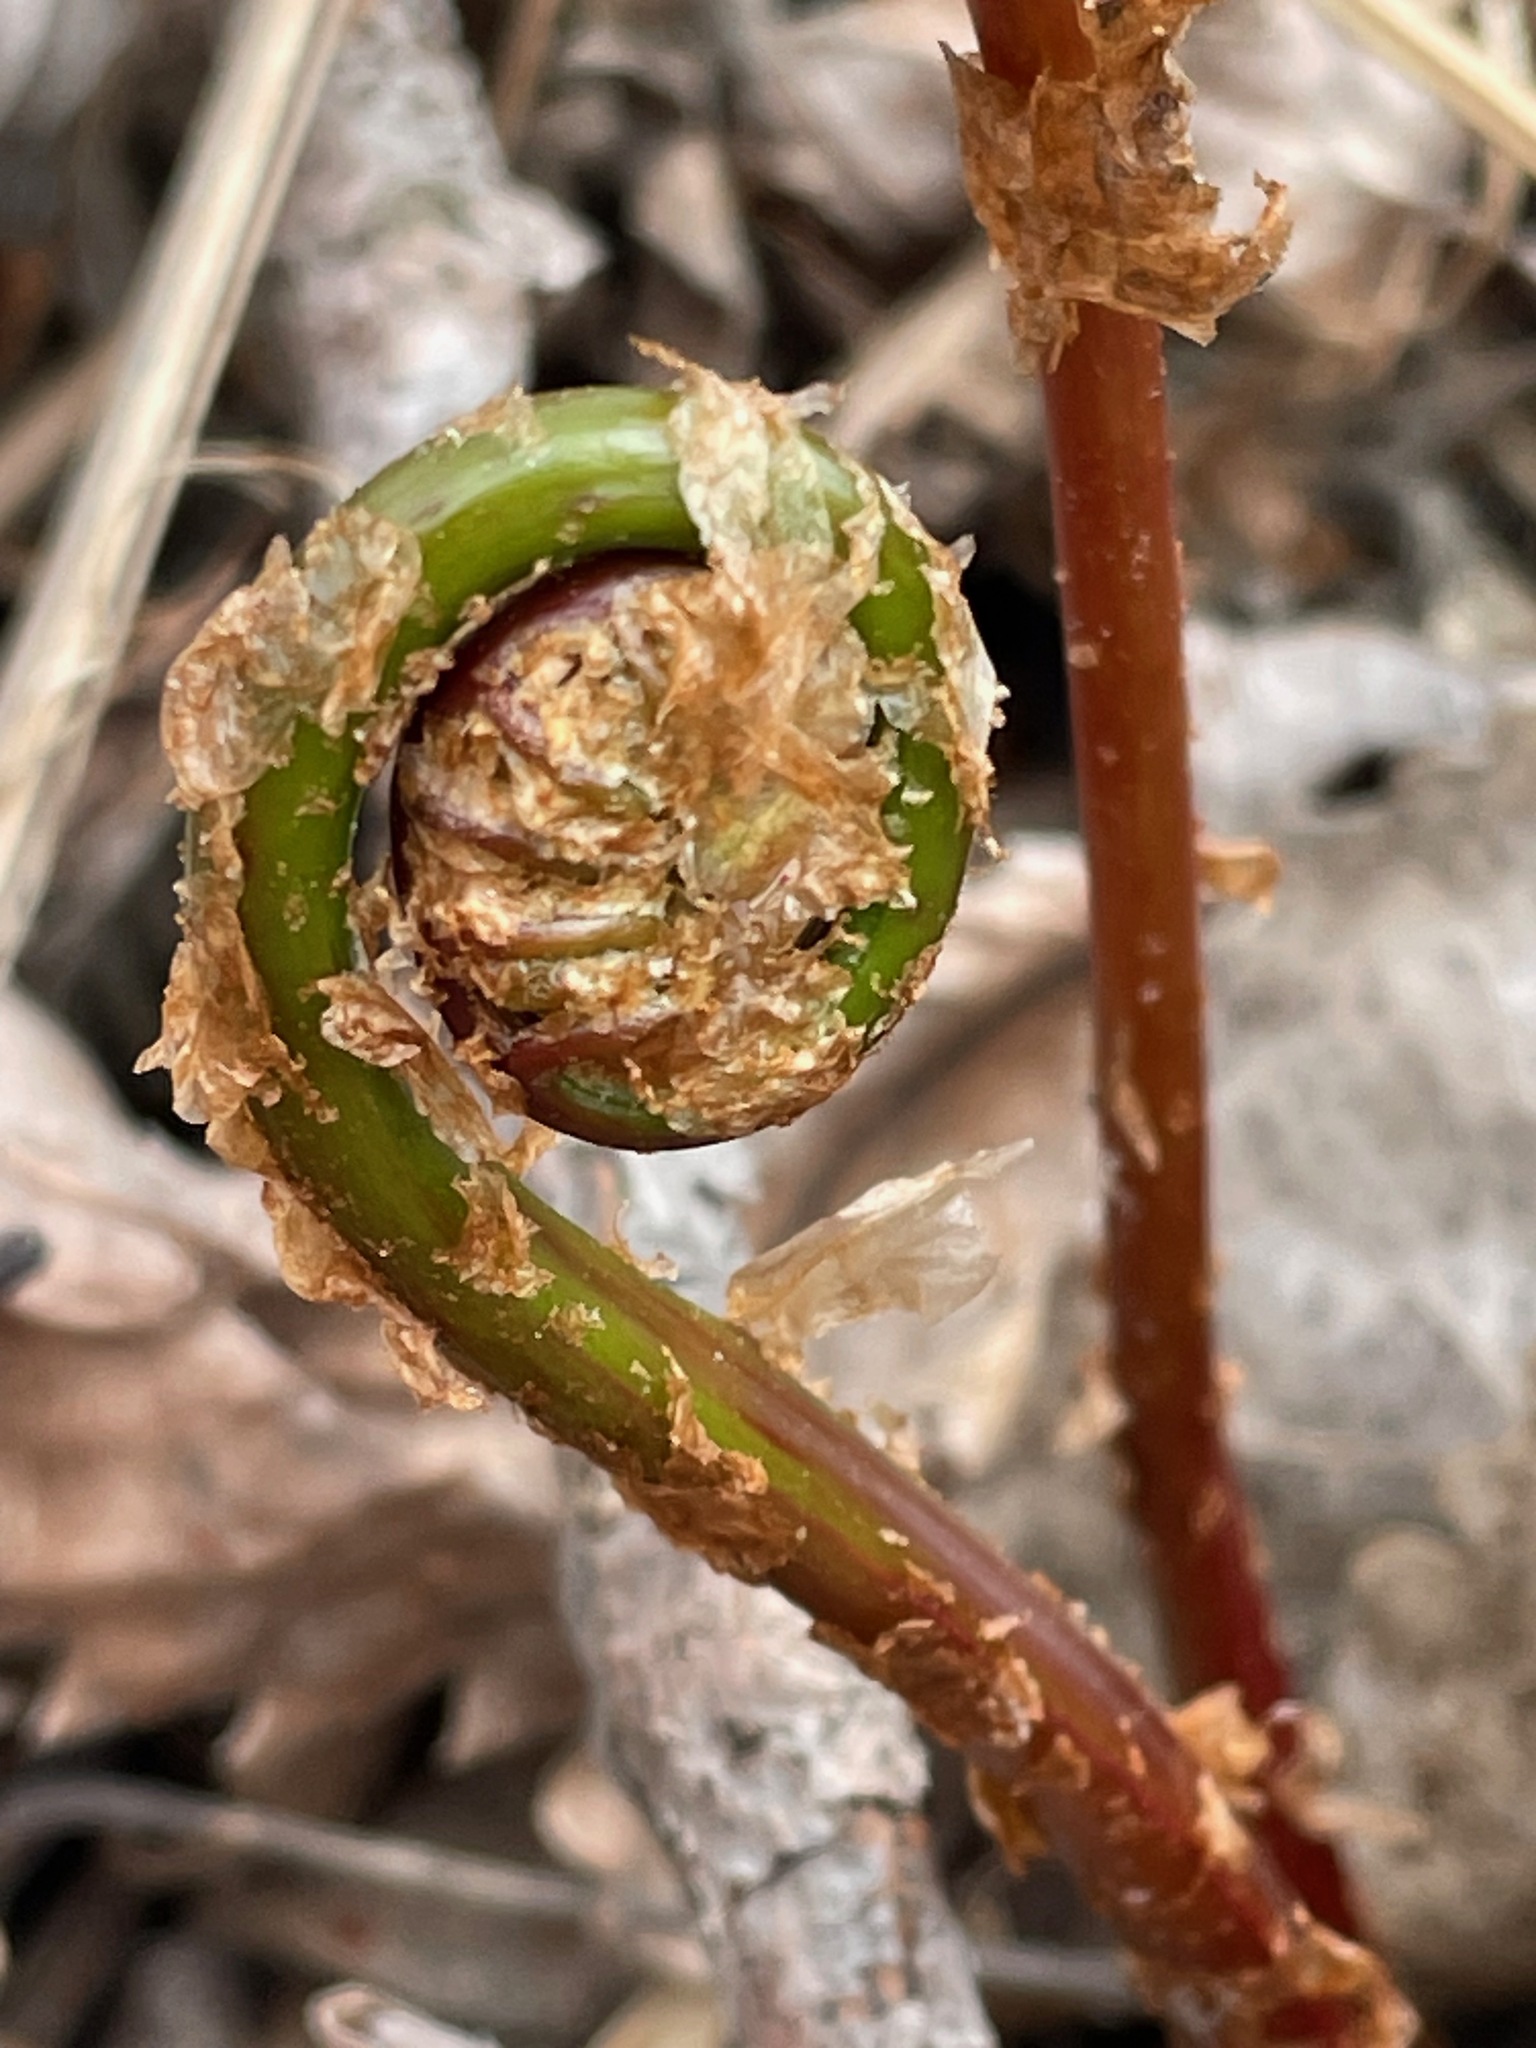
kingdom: Plantae
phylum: Tracheophyta
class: Polypodiopsida
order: Polypodiales
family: Onocleaceae
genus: Onoclea
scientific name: Onoclea sensibilis
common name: Sensitive fern
